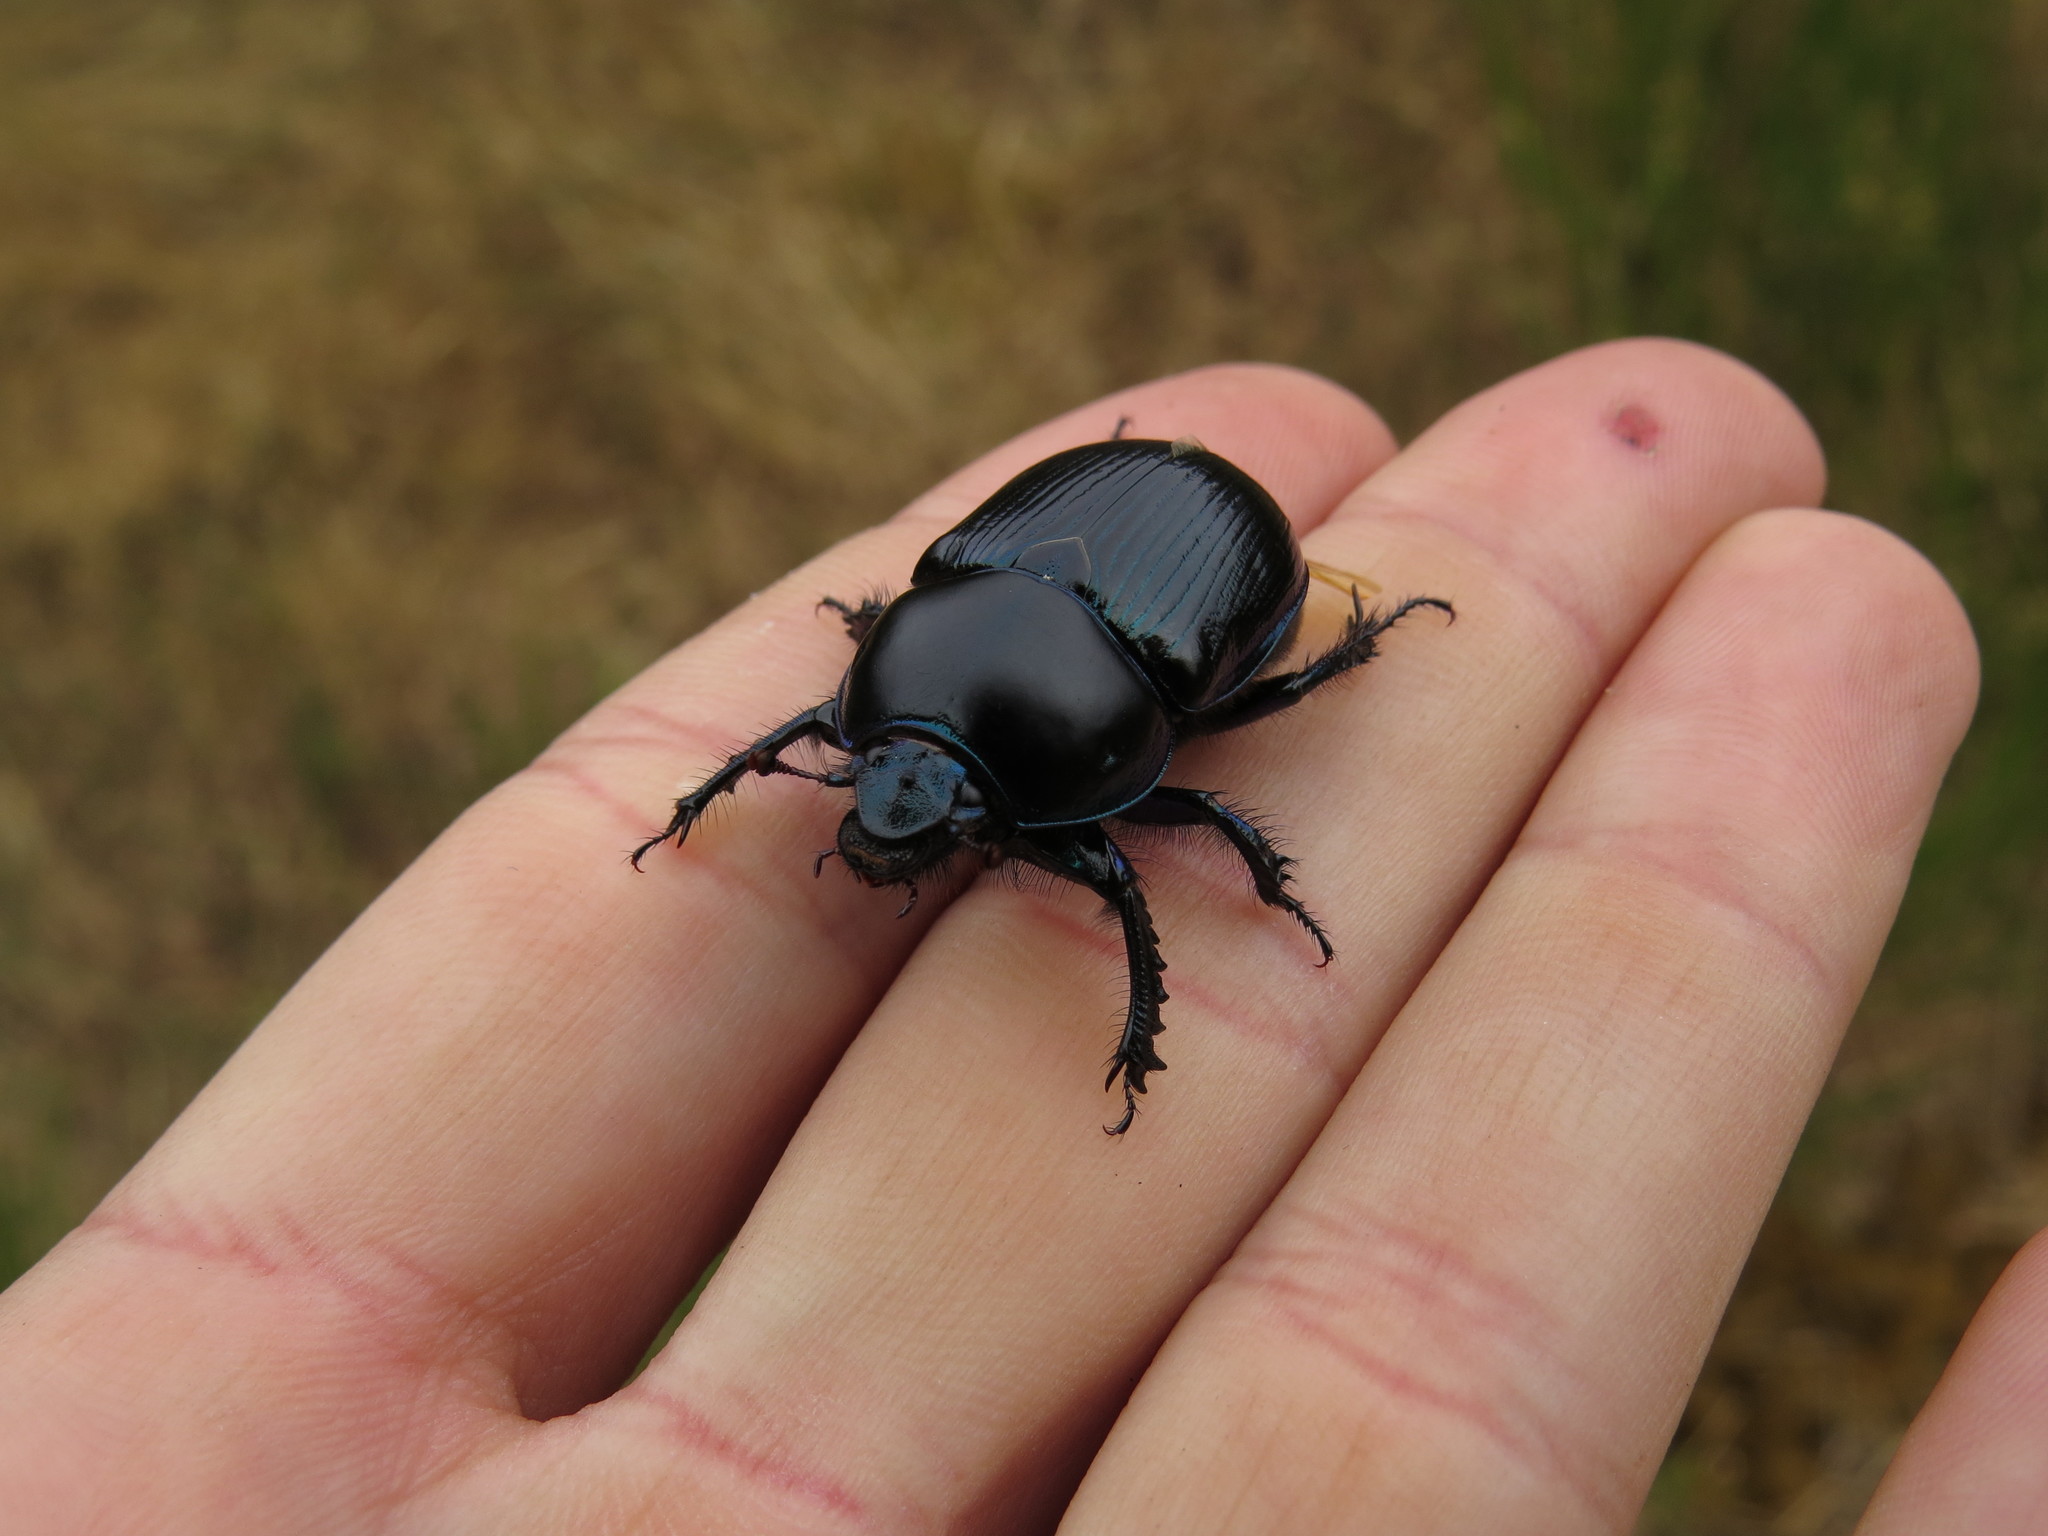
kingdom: Animalia
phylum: Arthropoda
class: Insecta
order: Coleoptera
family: Geotrupidae
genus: Anoplotrupes
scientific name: Anoplotrupes stercorosus
